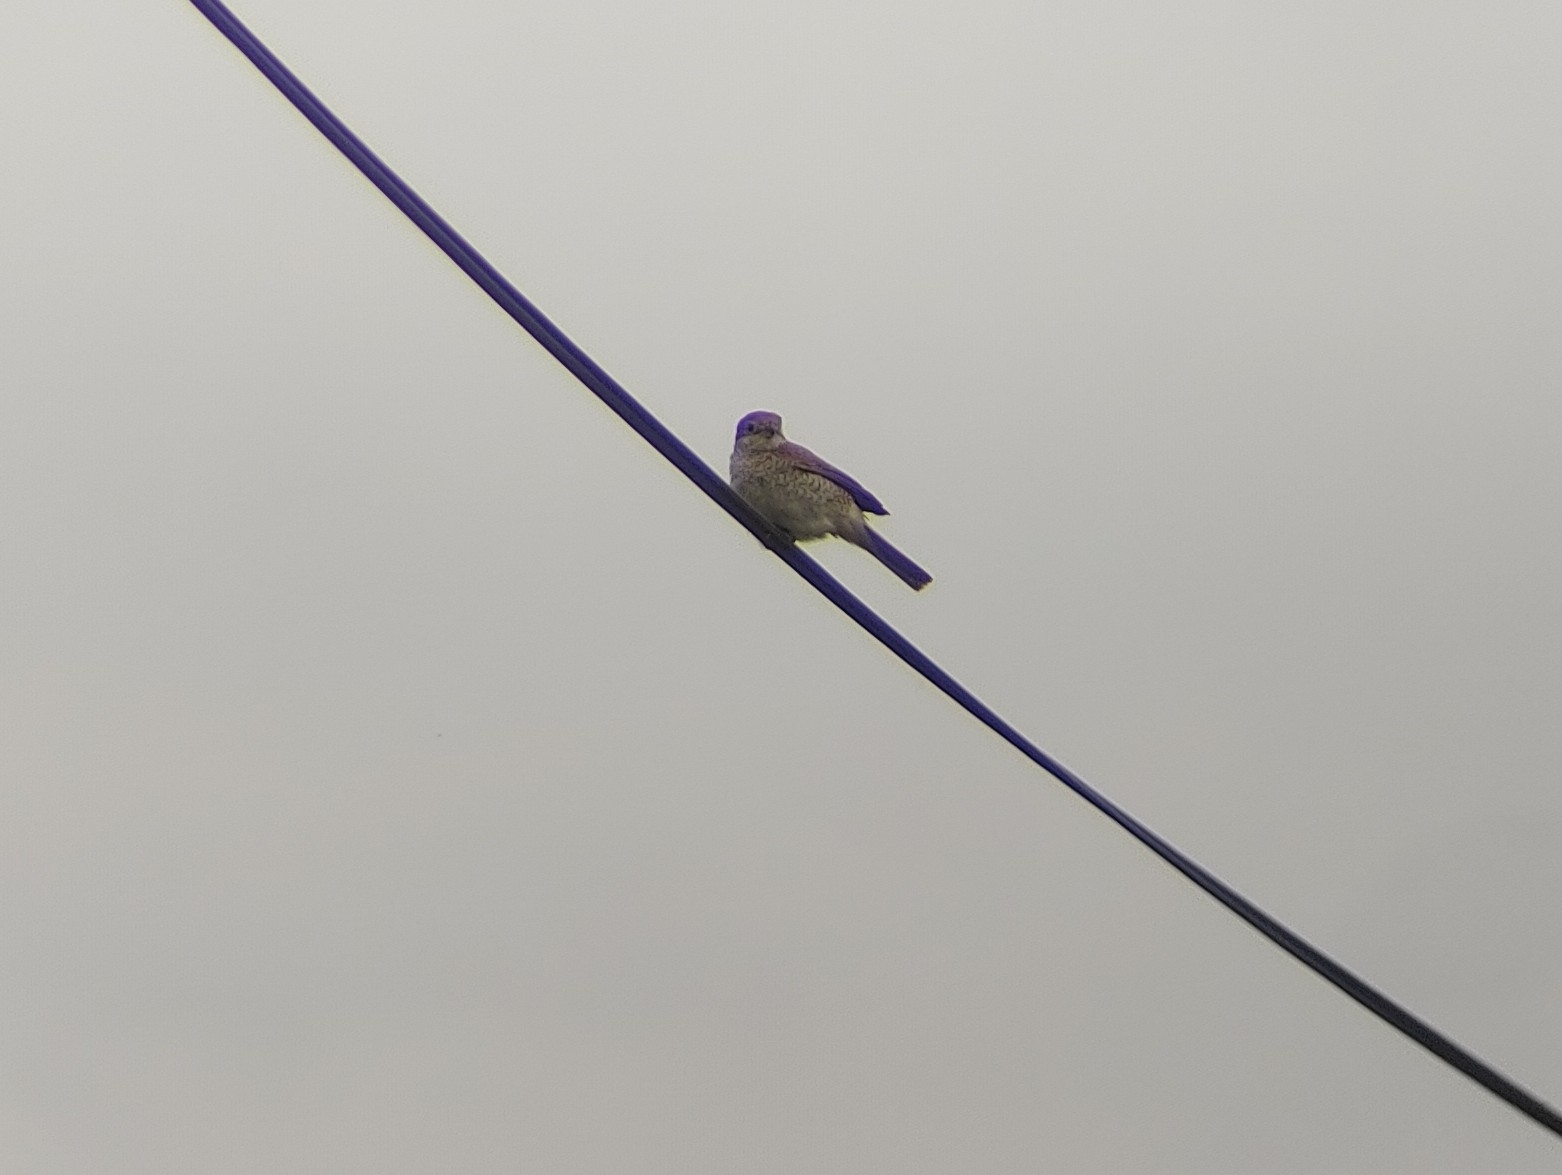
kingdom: Animalia
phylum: Chordata
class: Aves
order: Passeriformes
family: Laniidae
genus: Lanius
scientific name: Lanius collurio
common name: Red-backed shrike
